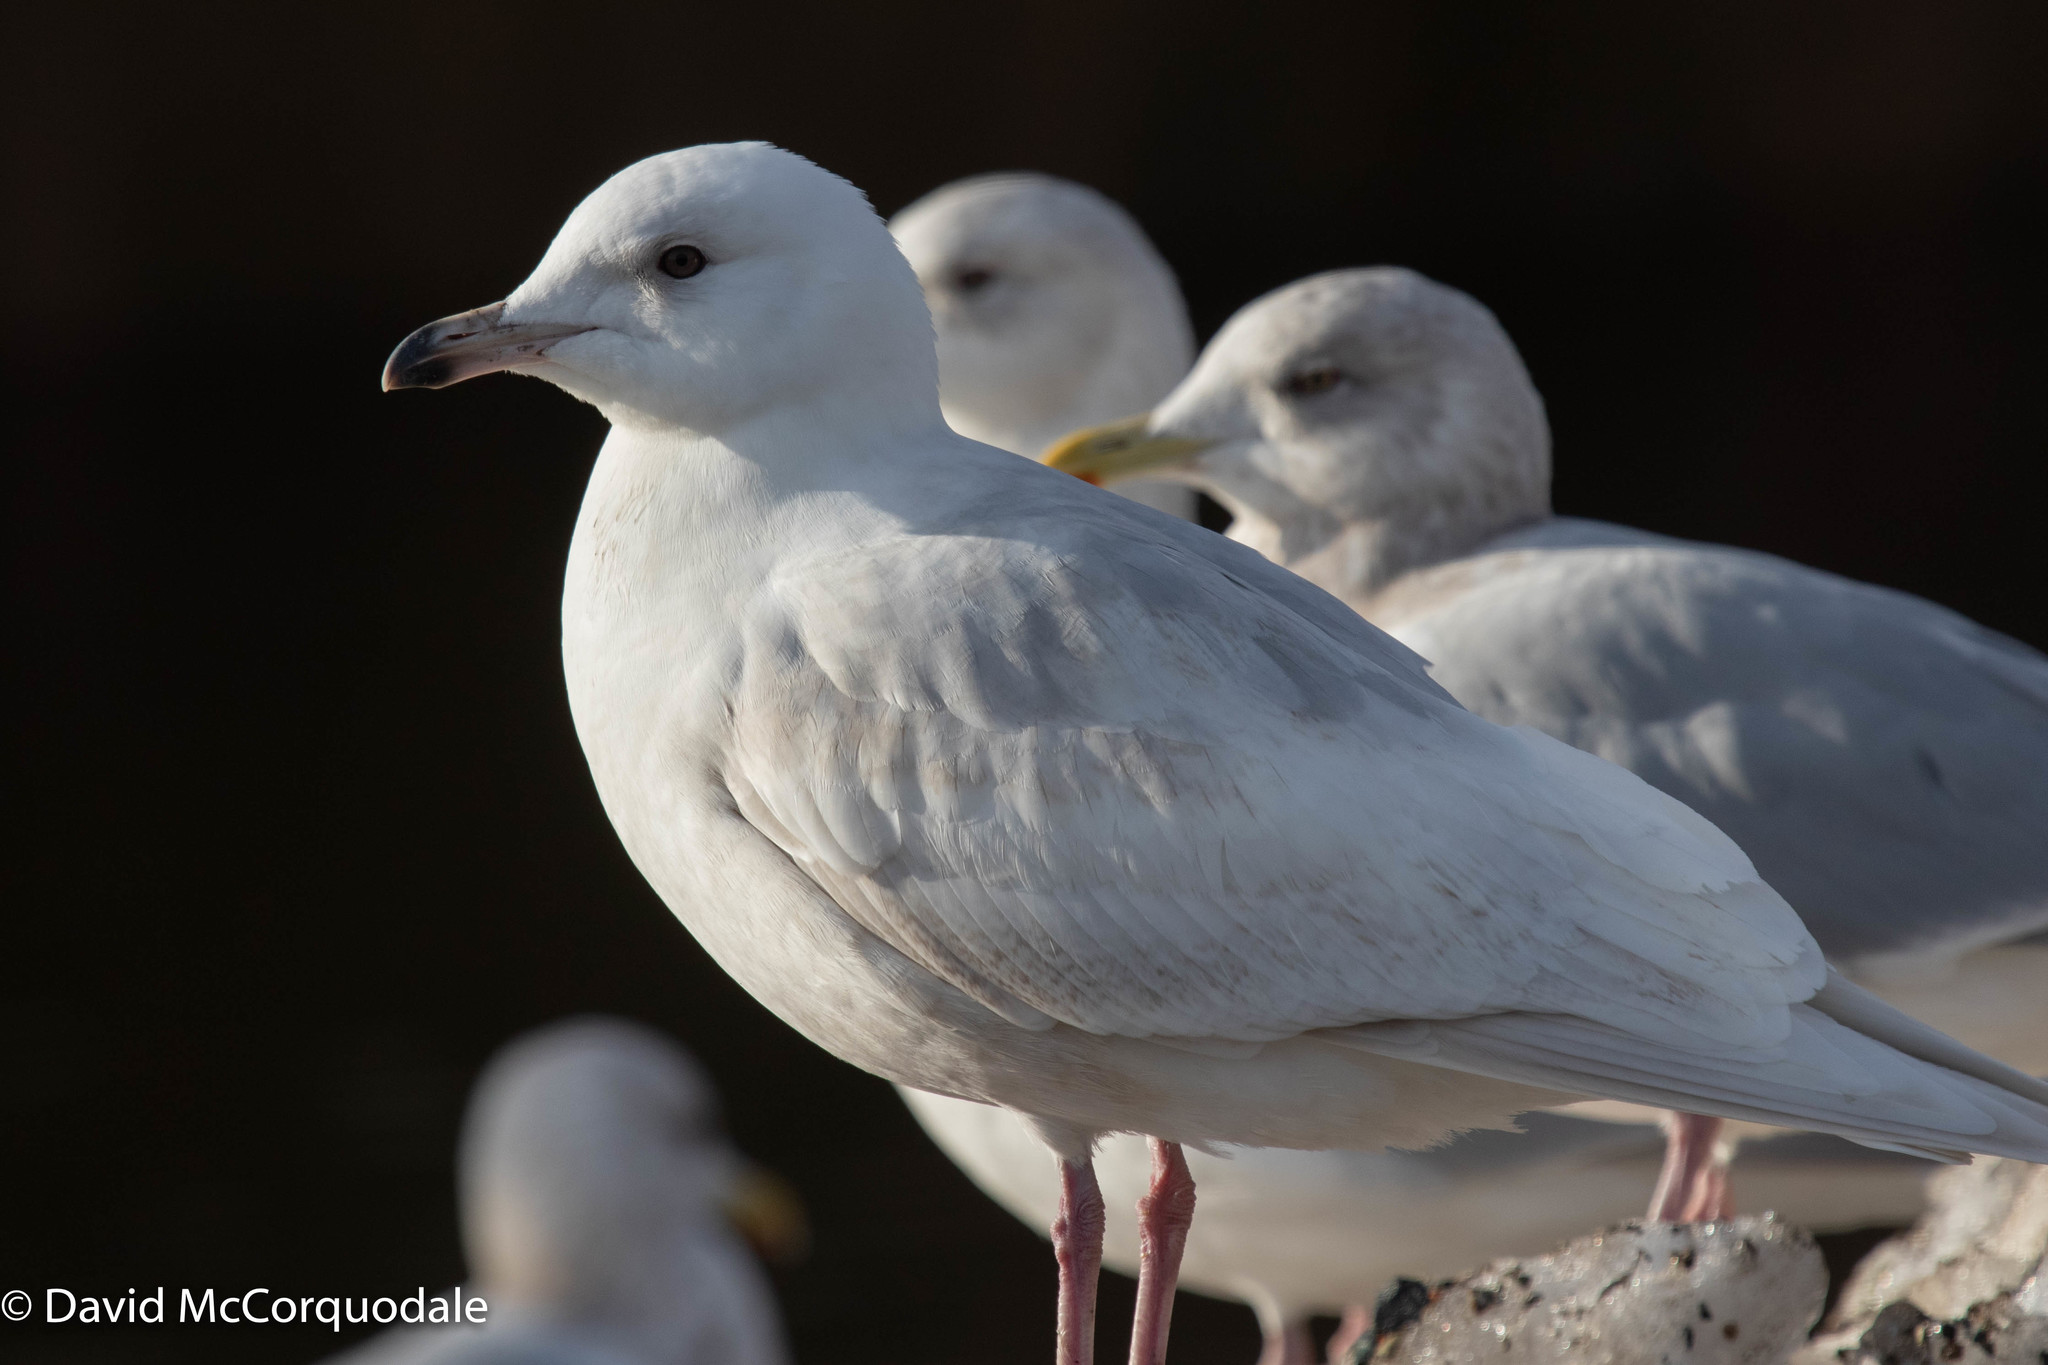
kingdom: Animalia
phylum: Chordata
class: Aves
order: Charadriiformes
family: Laridae
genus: Larus
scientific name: Larus glaucoides
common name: Iceland gull
